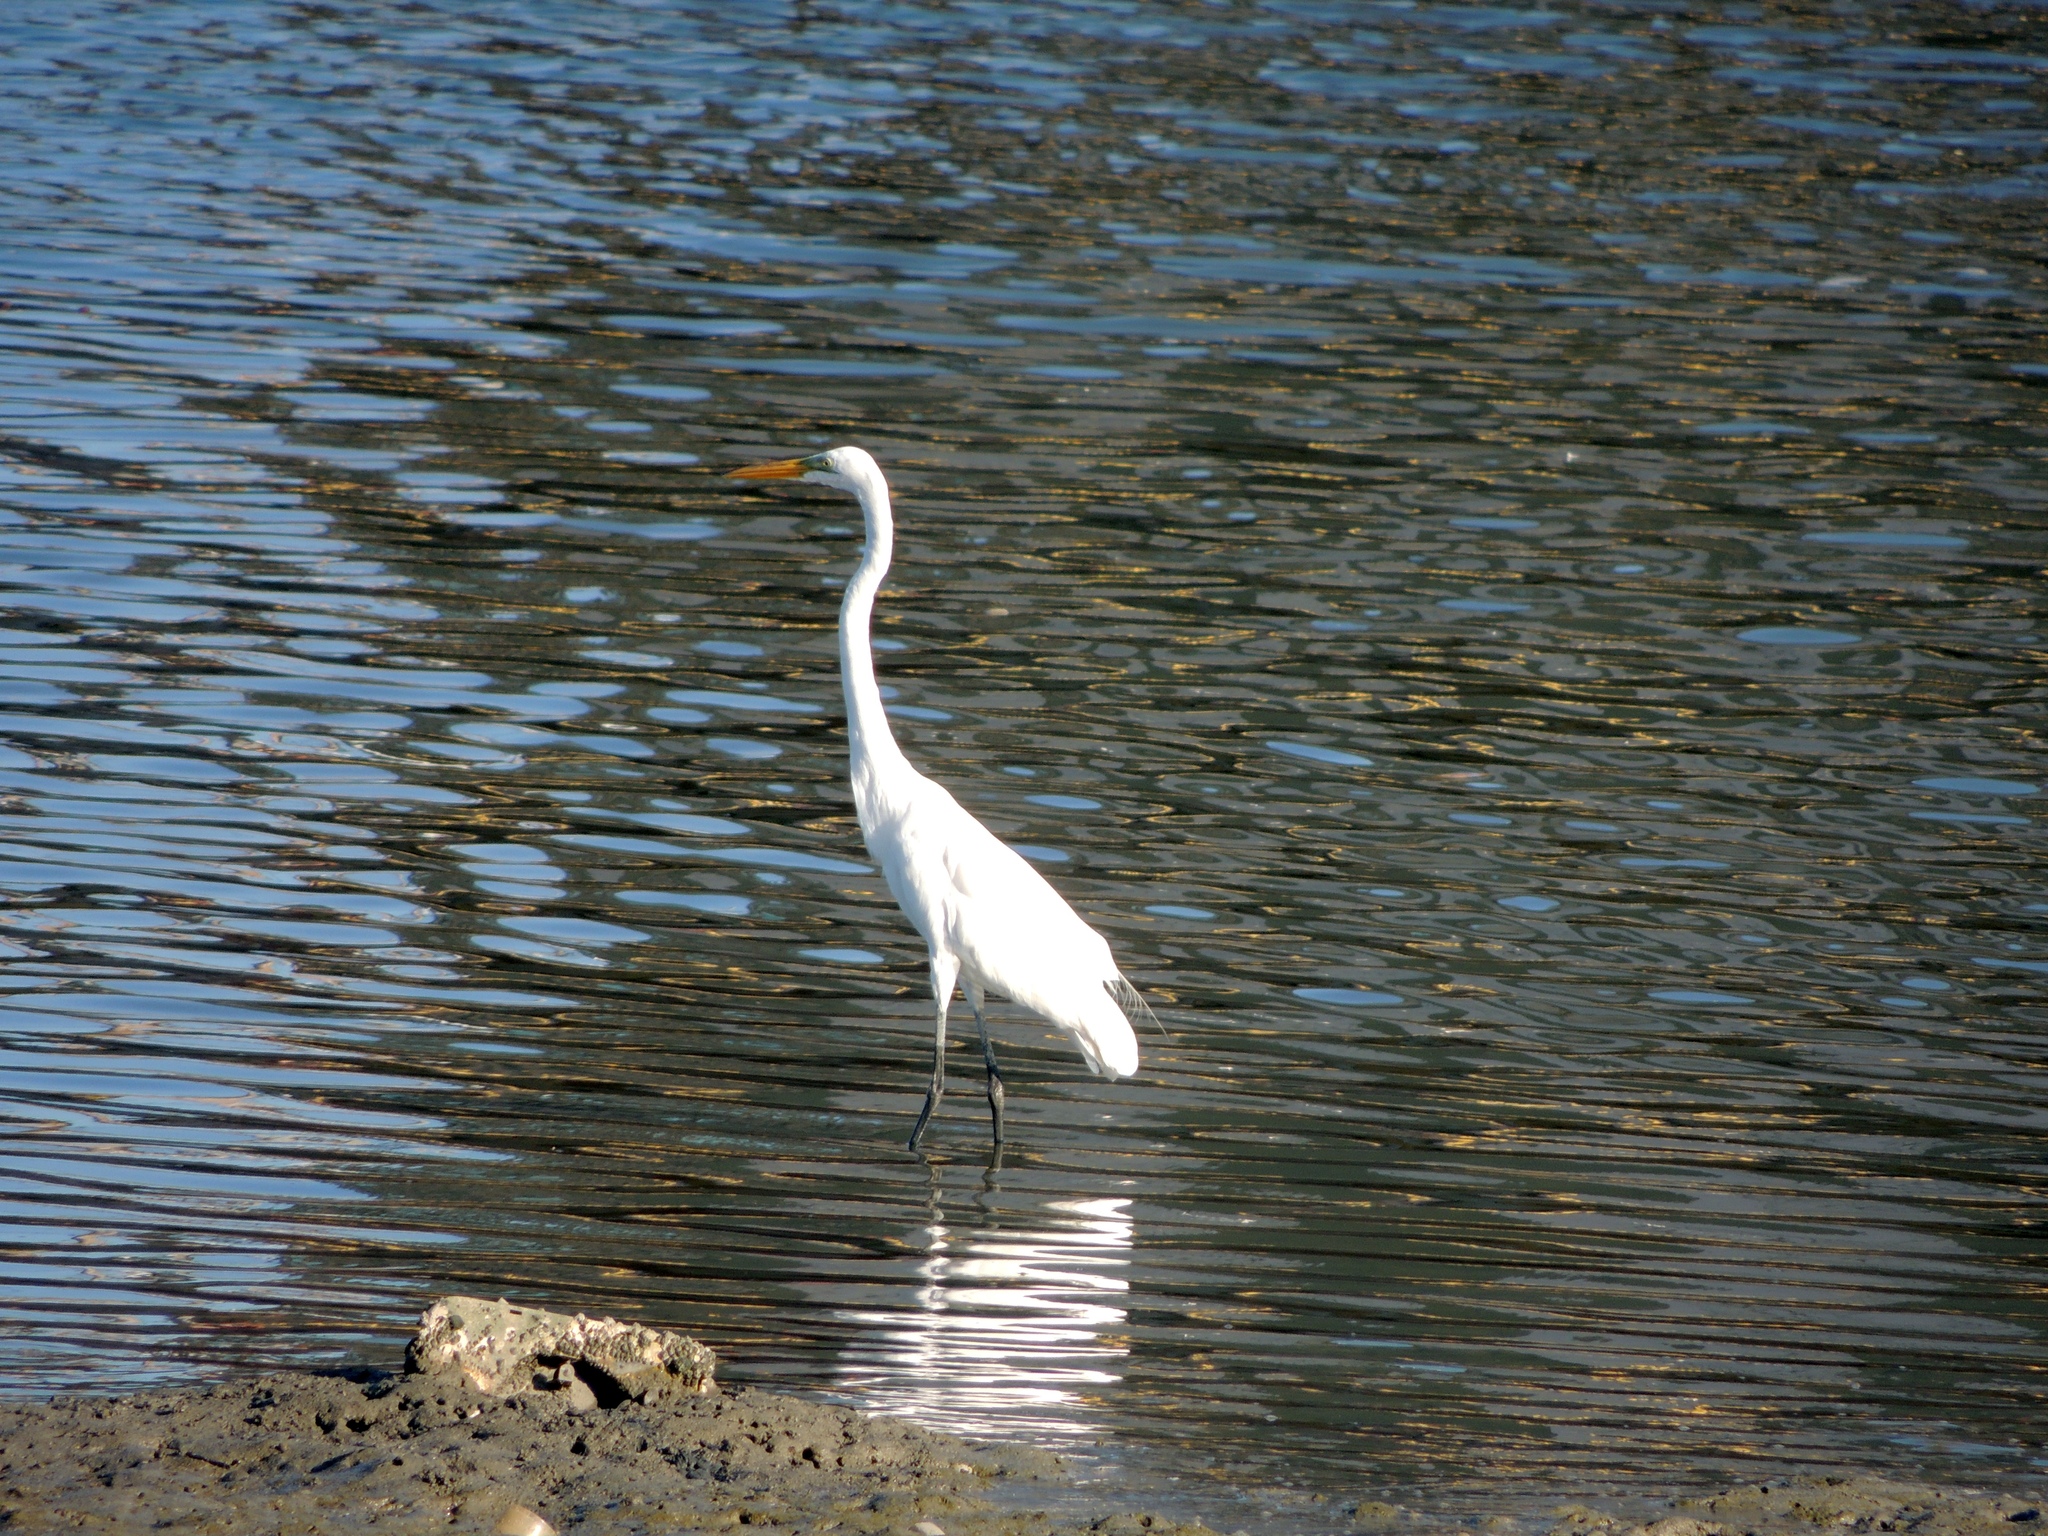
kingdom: Animalia
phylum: Chordata
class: Aves
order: Pelecaniformes
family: Ardeidae
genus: Ardea
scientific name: Ardea alba
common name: Great egret
